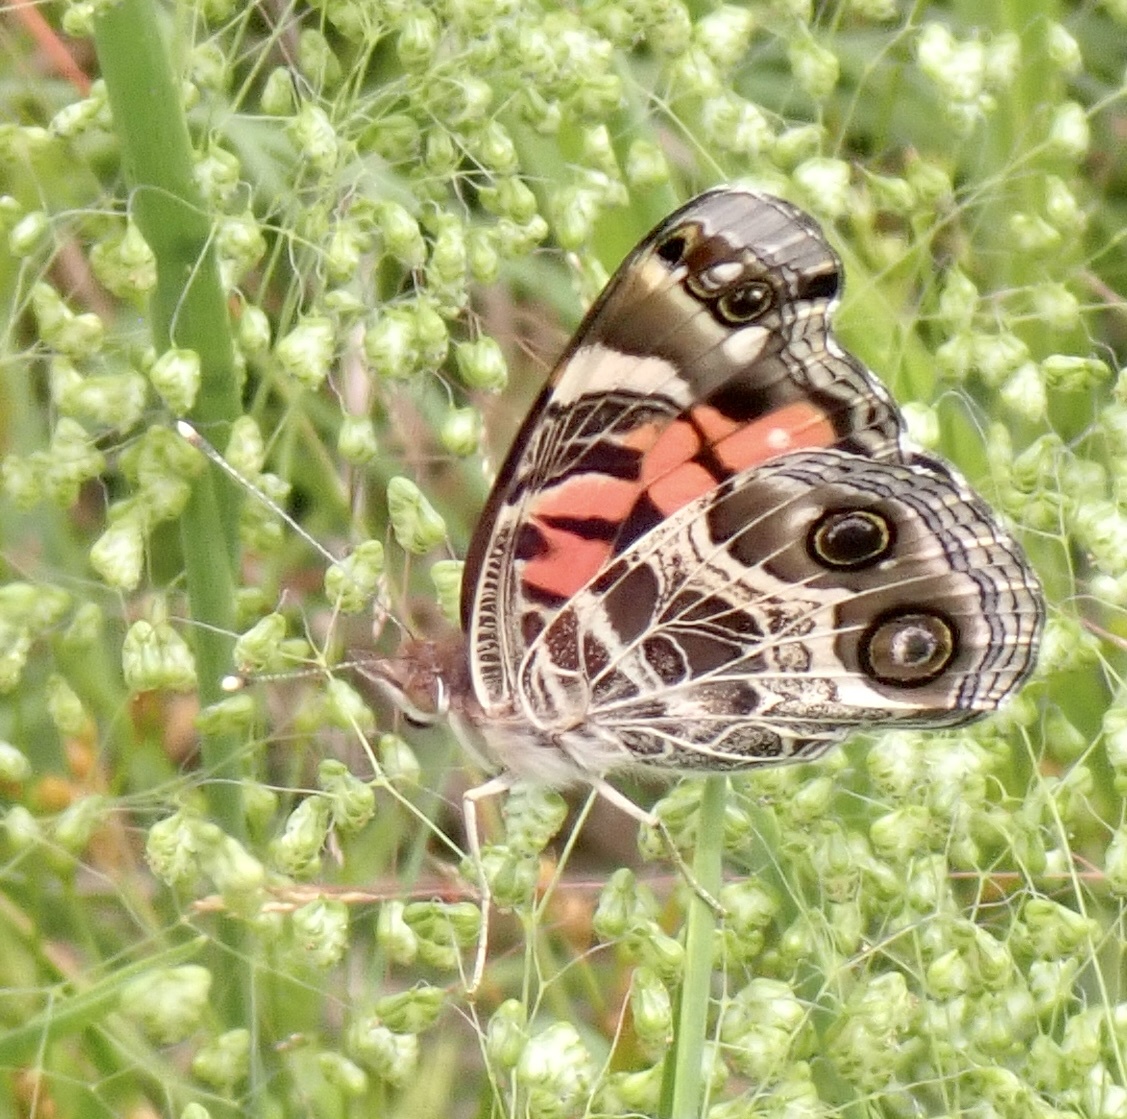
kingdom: Animalia
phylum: Arthropoda
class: Insecta
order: Lepidoptera
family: Nymphalidae
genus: Vanessa
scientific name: Vanessa virginiensis
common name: American lady
